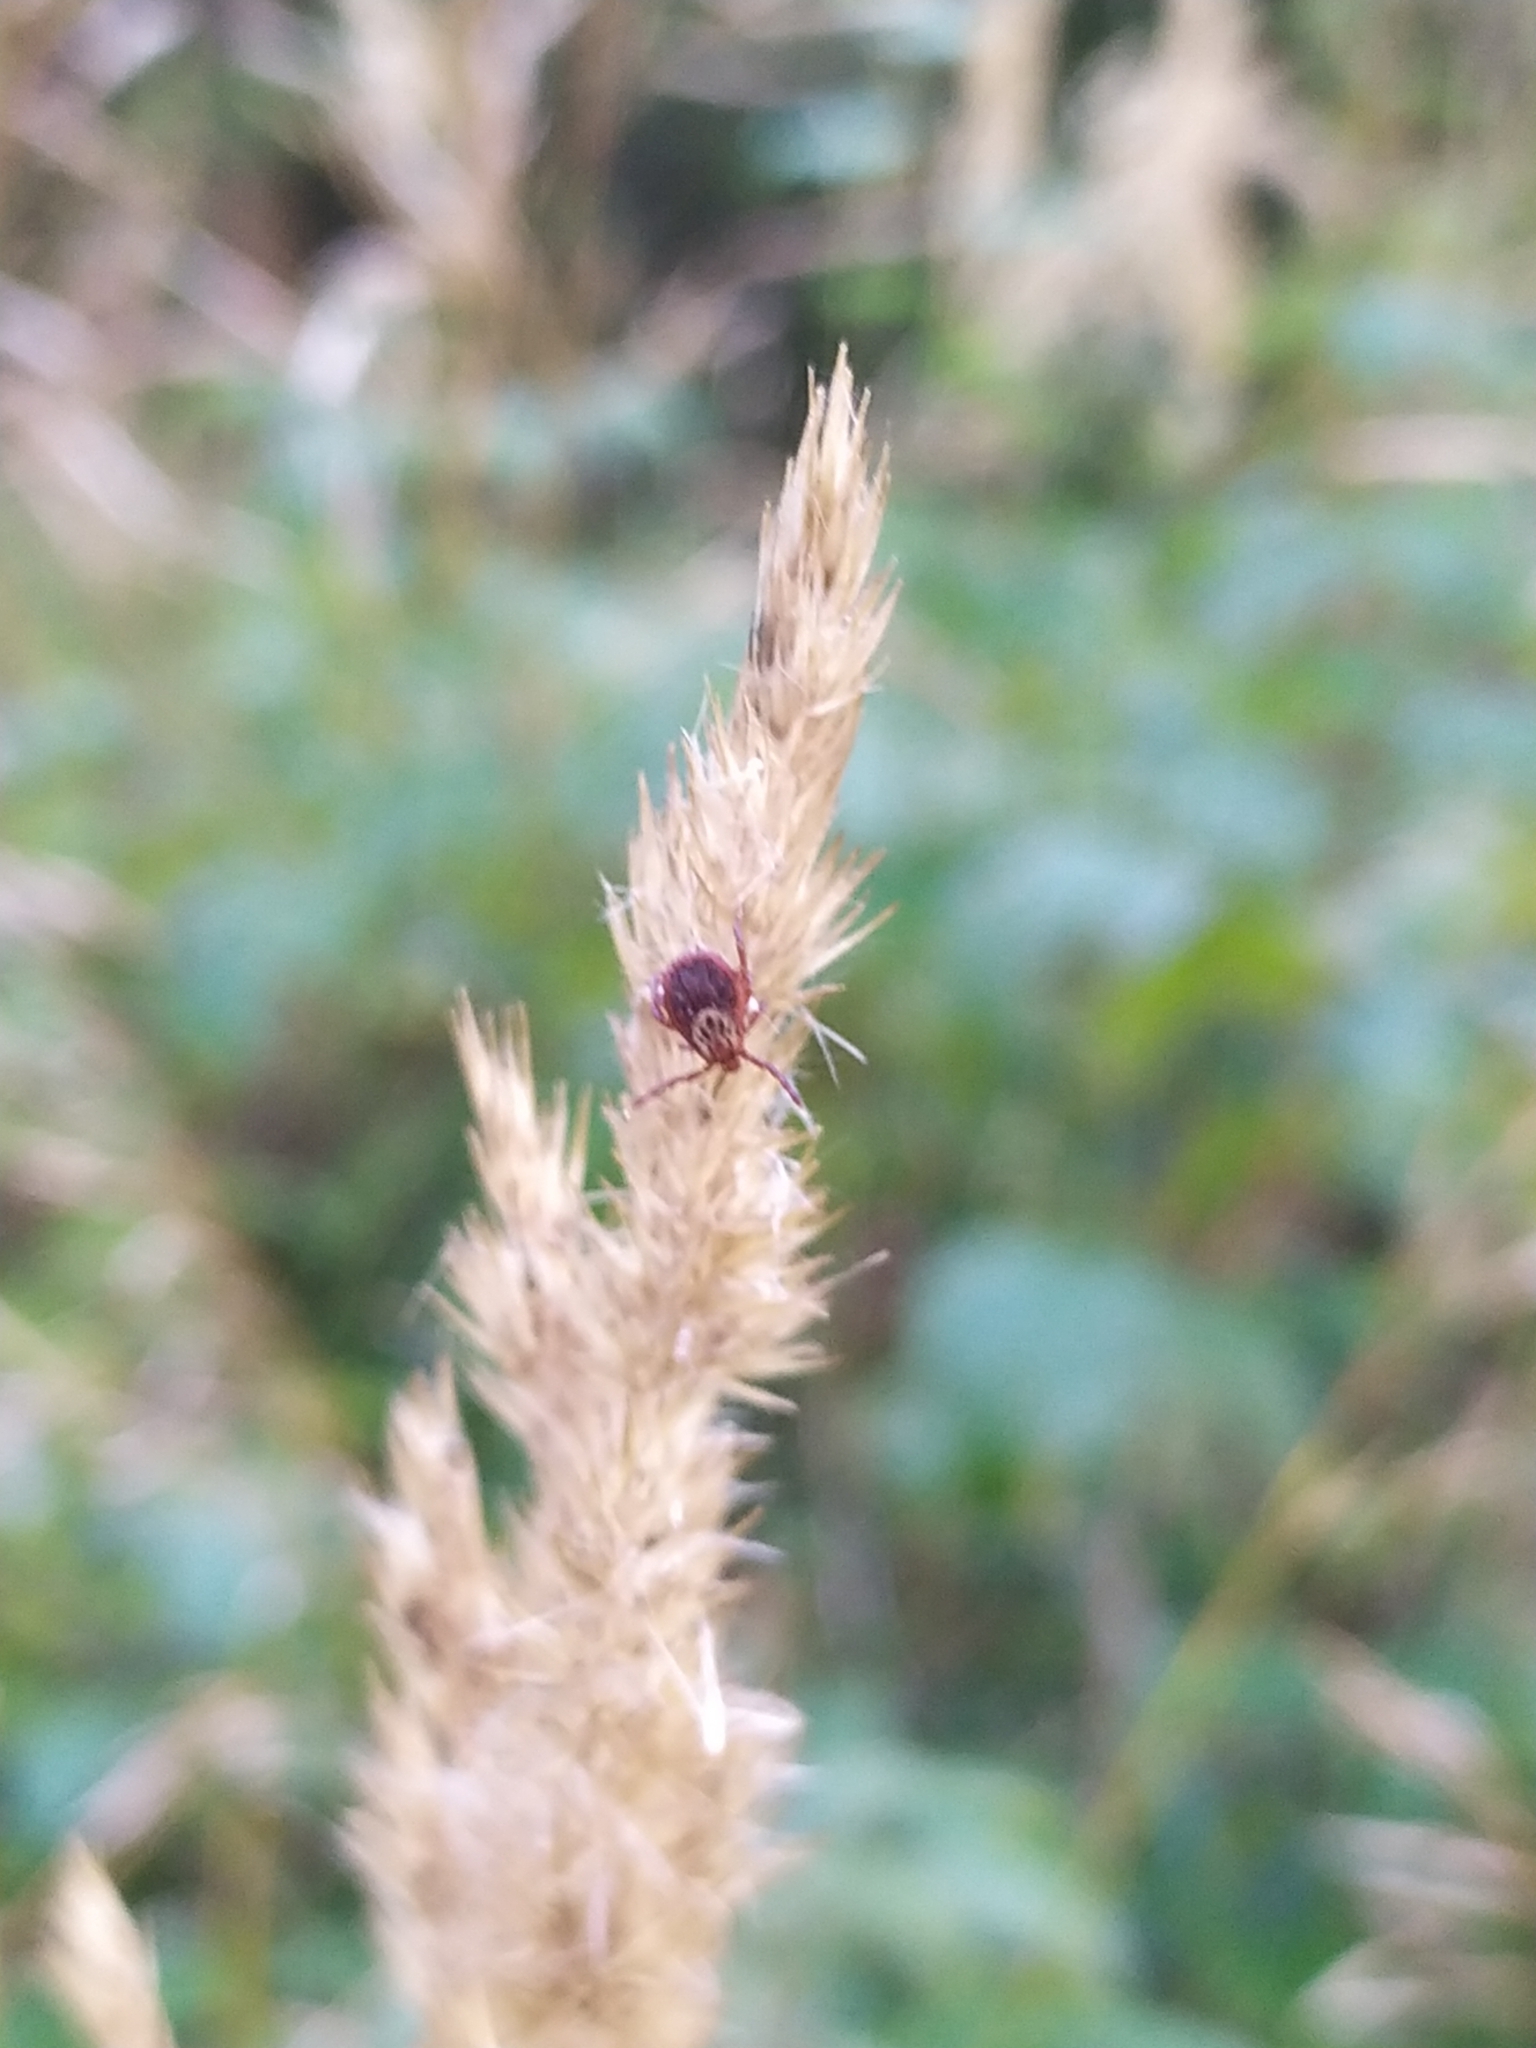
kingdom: Animalia
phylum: Arthropoda
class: Arachnida
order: Ixodida
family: Ixodidae
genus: Dermacentor
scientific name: Dermacentor reticulatus
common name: Ornate cow tick
